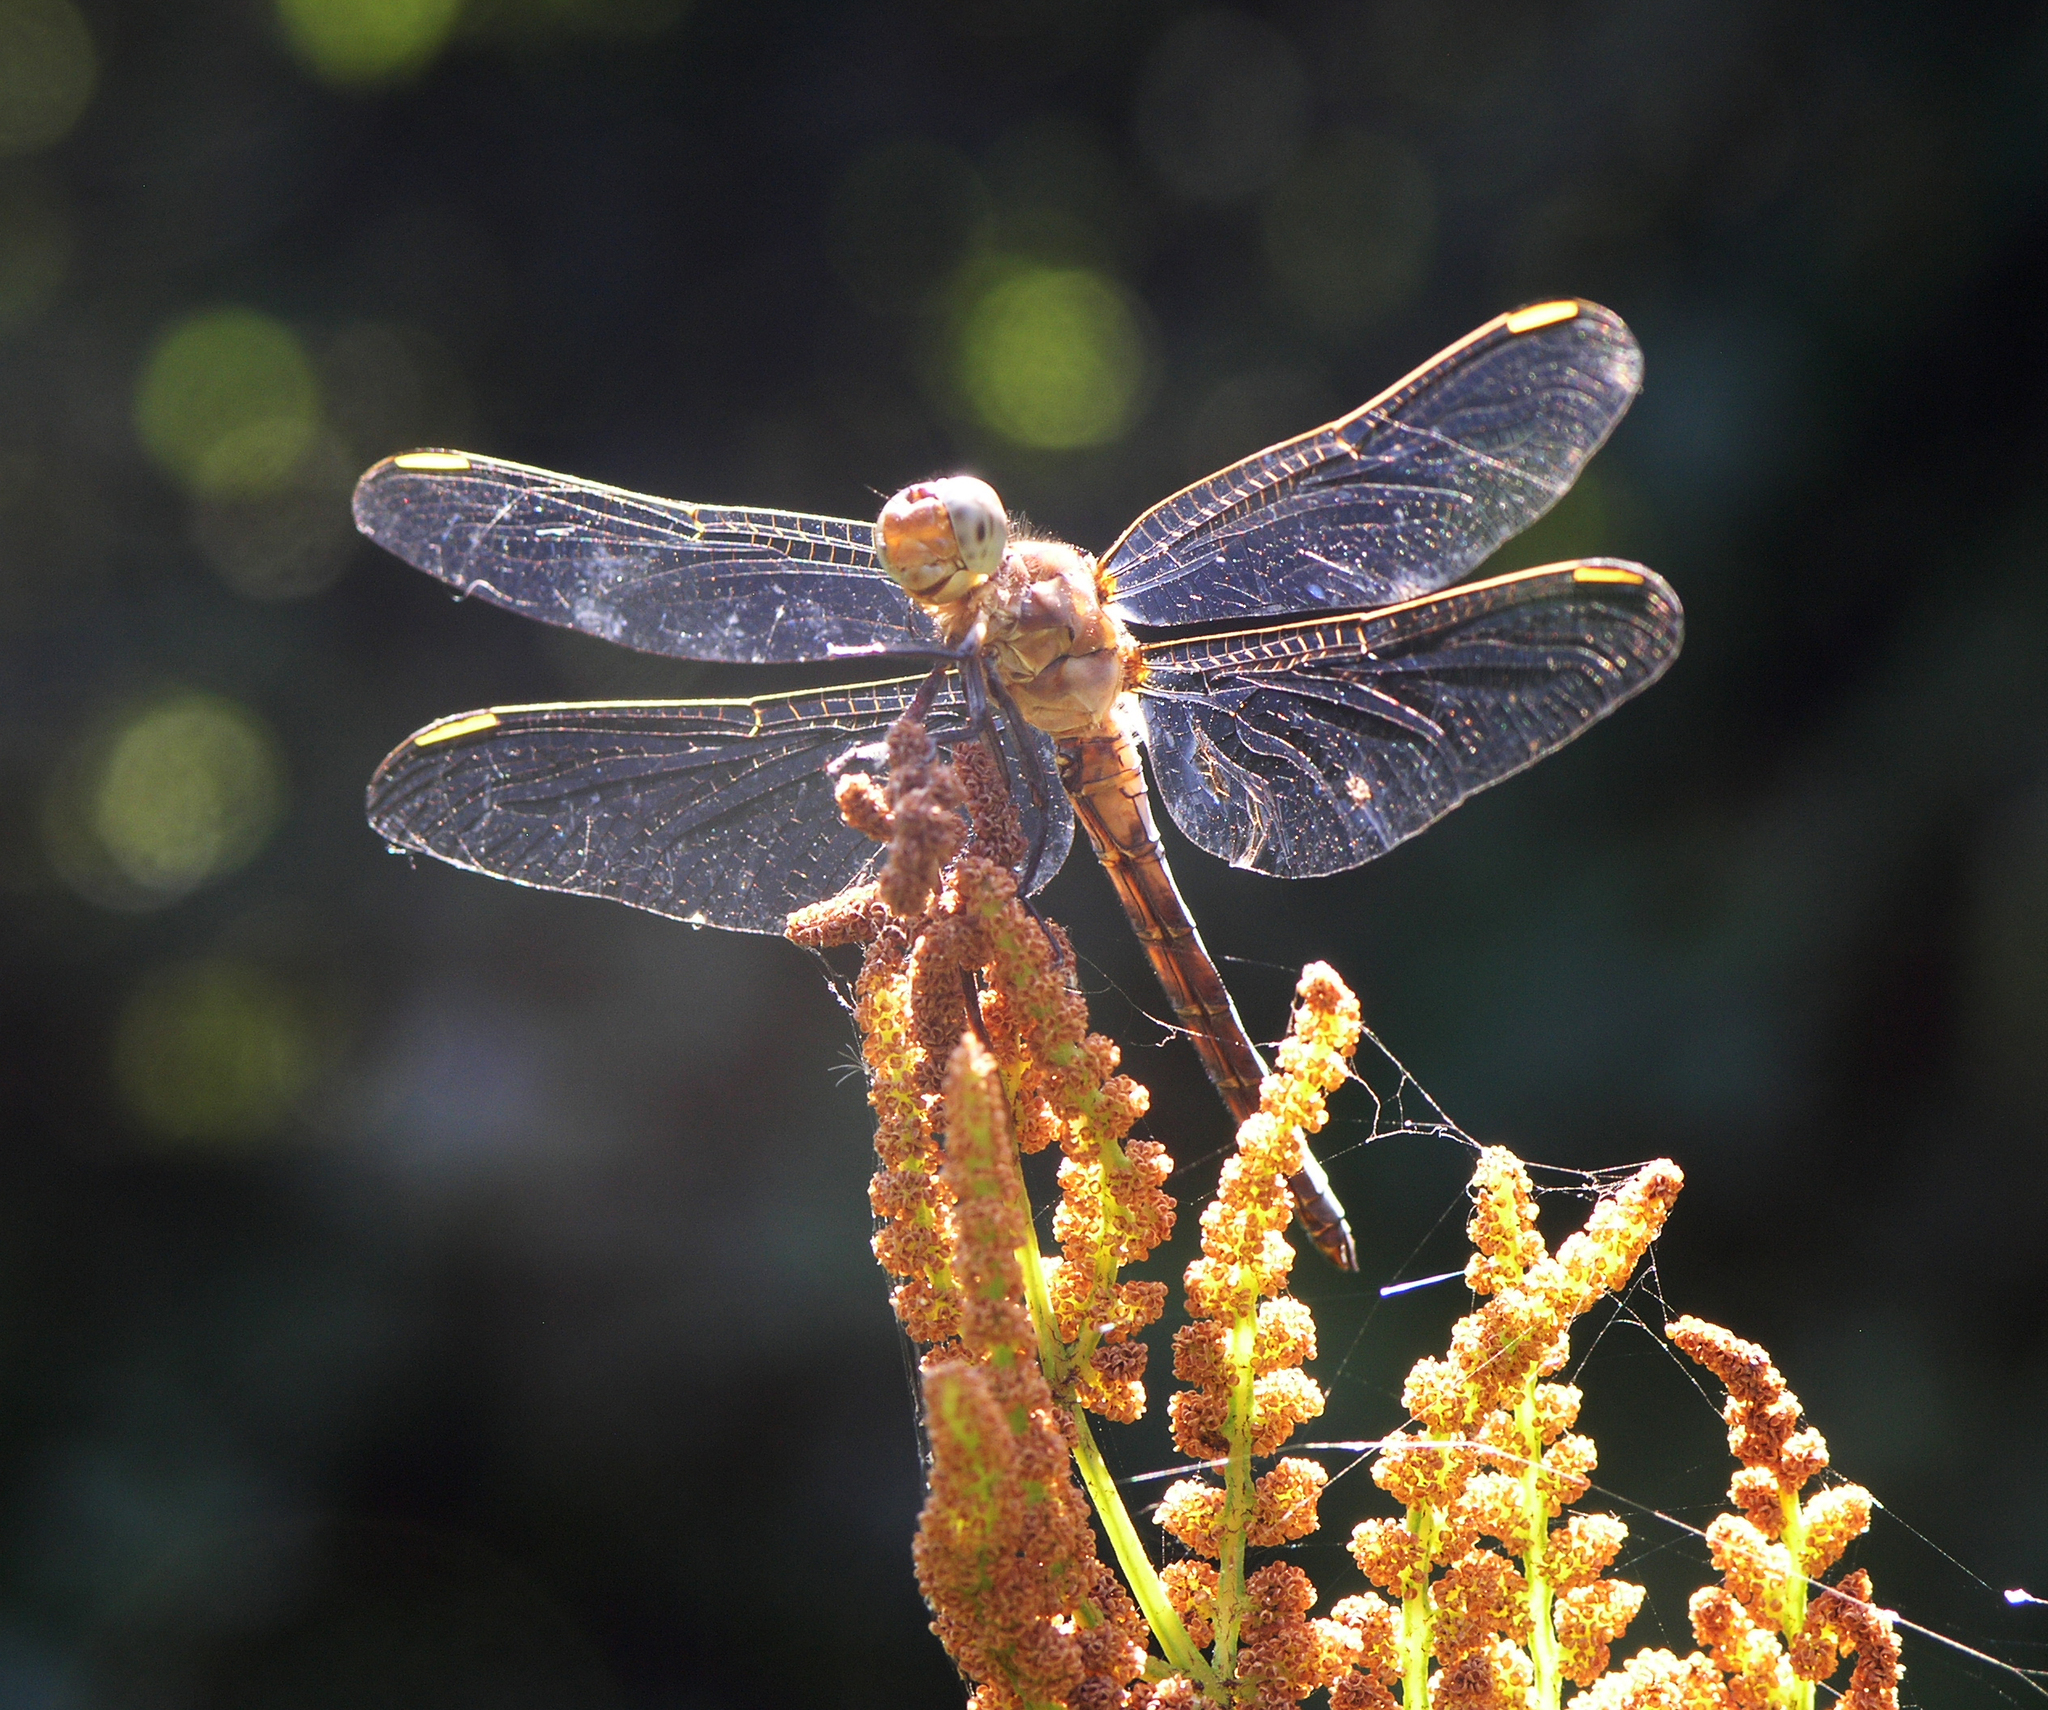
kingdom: Animalia
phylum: Arthropoda
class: Insecta
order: Odonata
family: Libellulidae
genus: Orthetrum
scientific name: Orthetrum coerulescens
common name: Keeled skimmer
